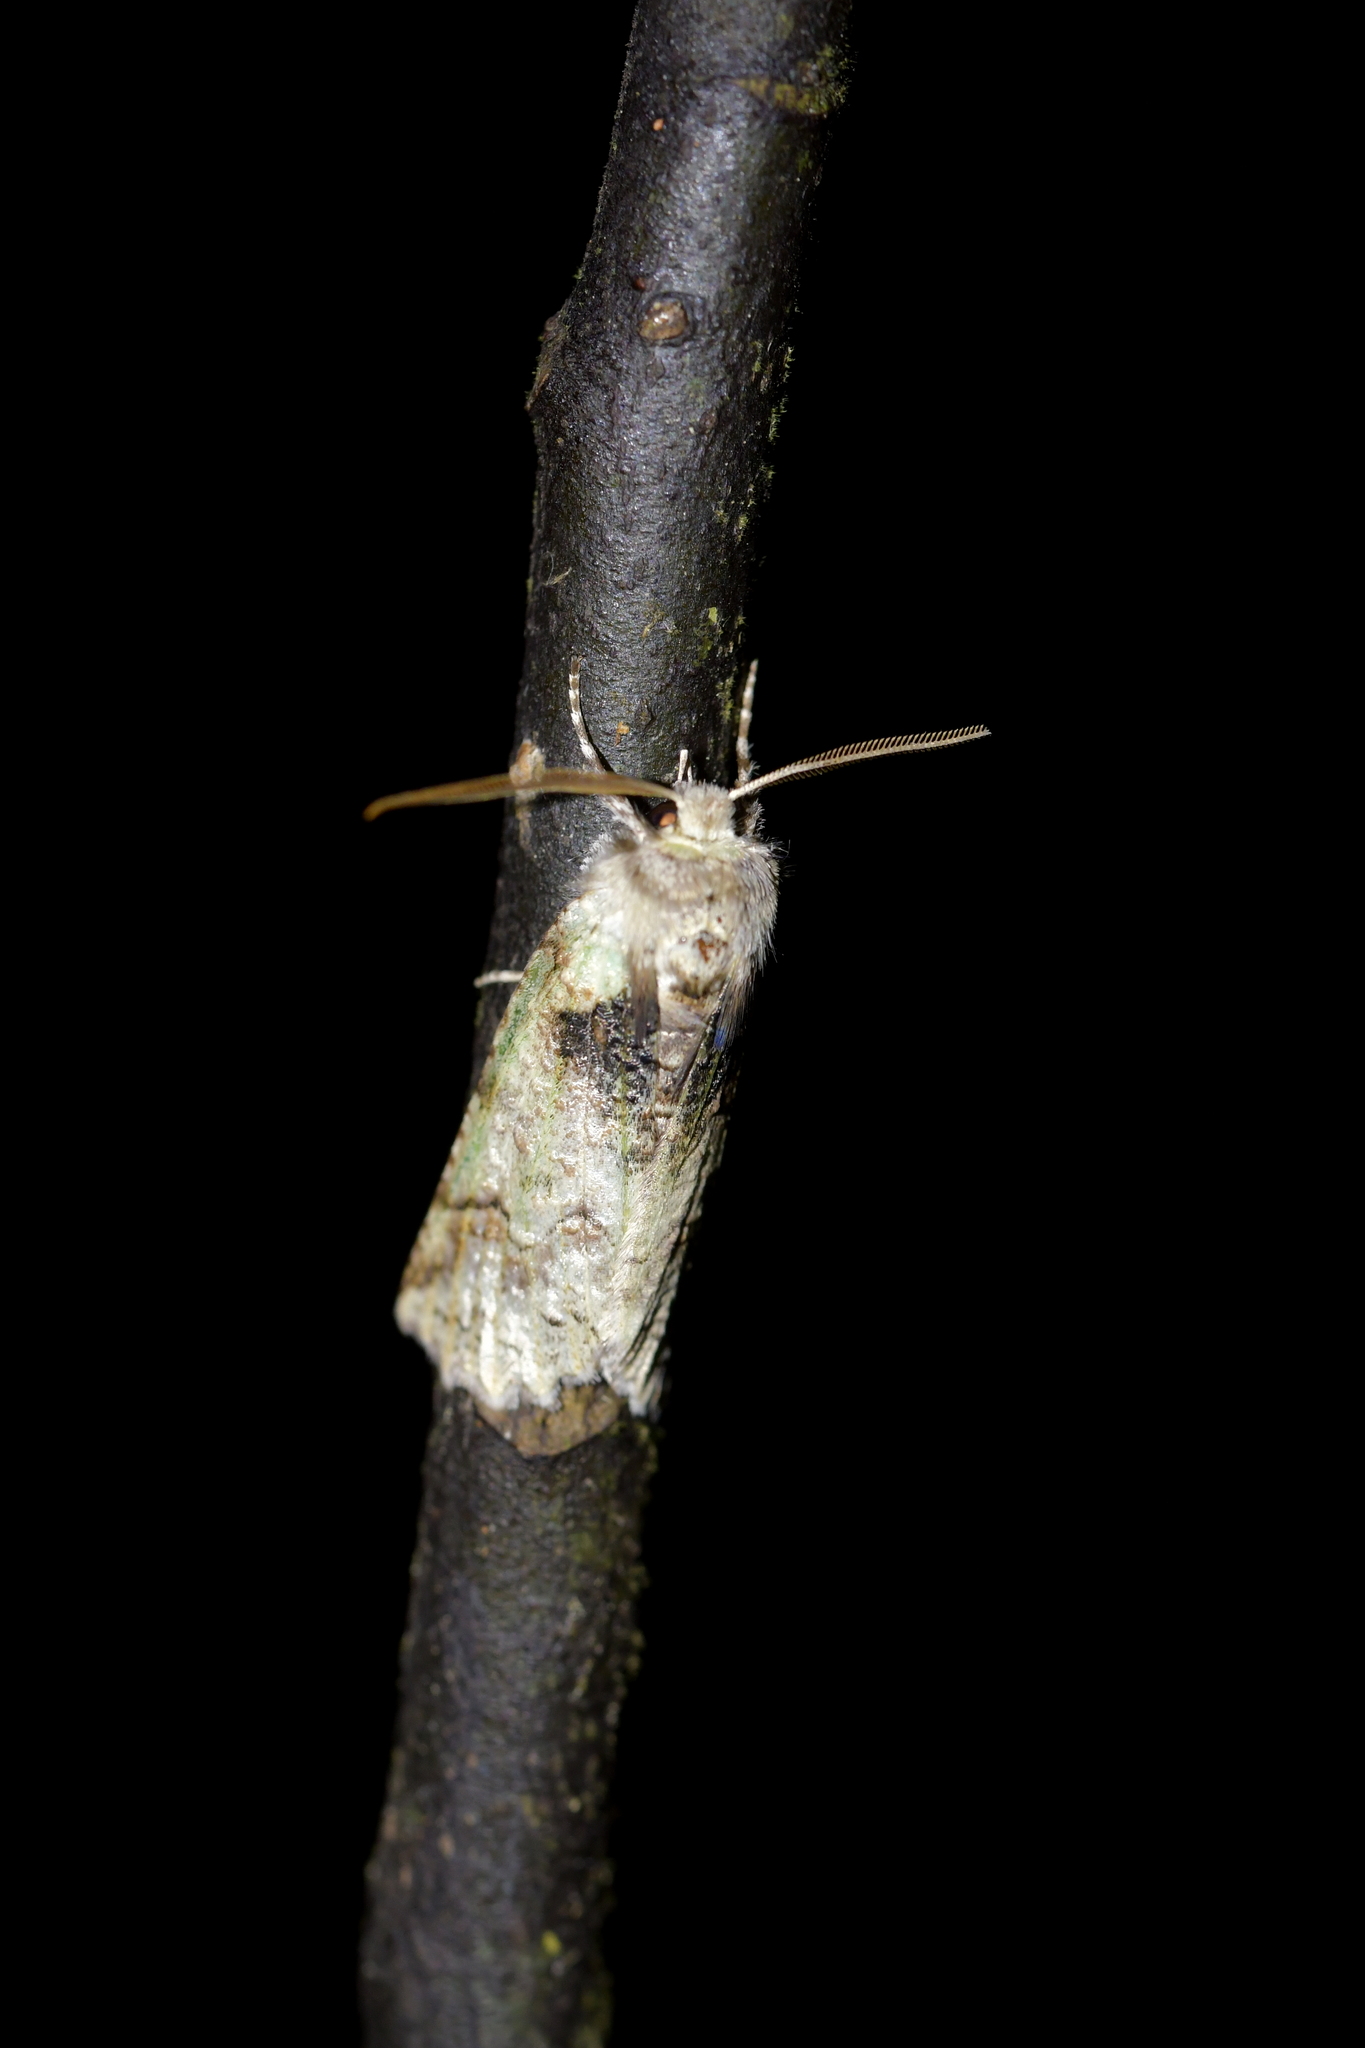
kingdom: Animalia
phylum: Arthropoda
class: Insecta
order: Lepidoptera
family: Geometridae
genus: Declana
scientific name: Declana floccosa
